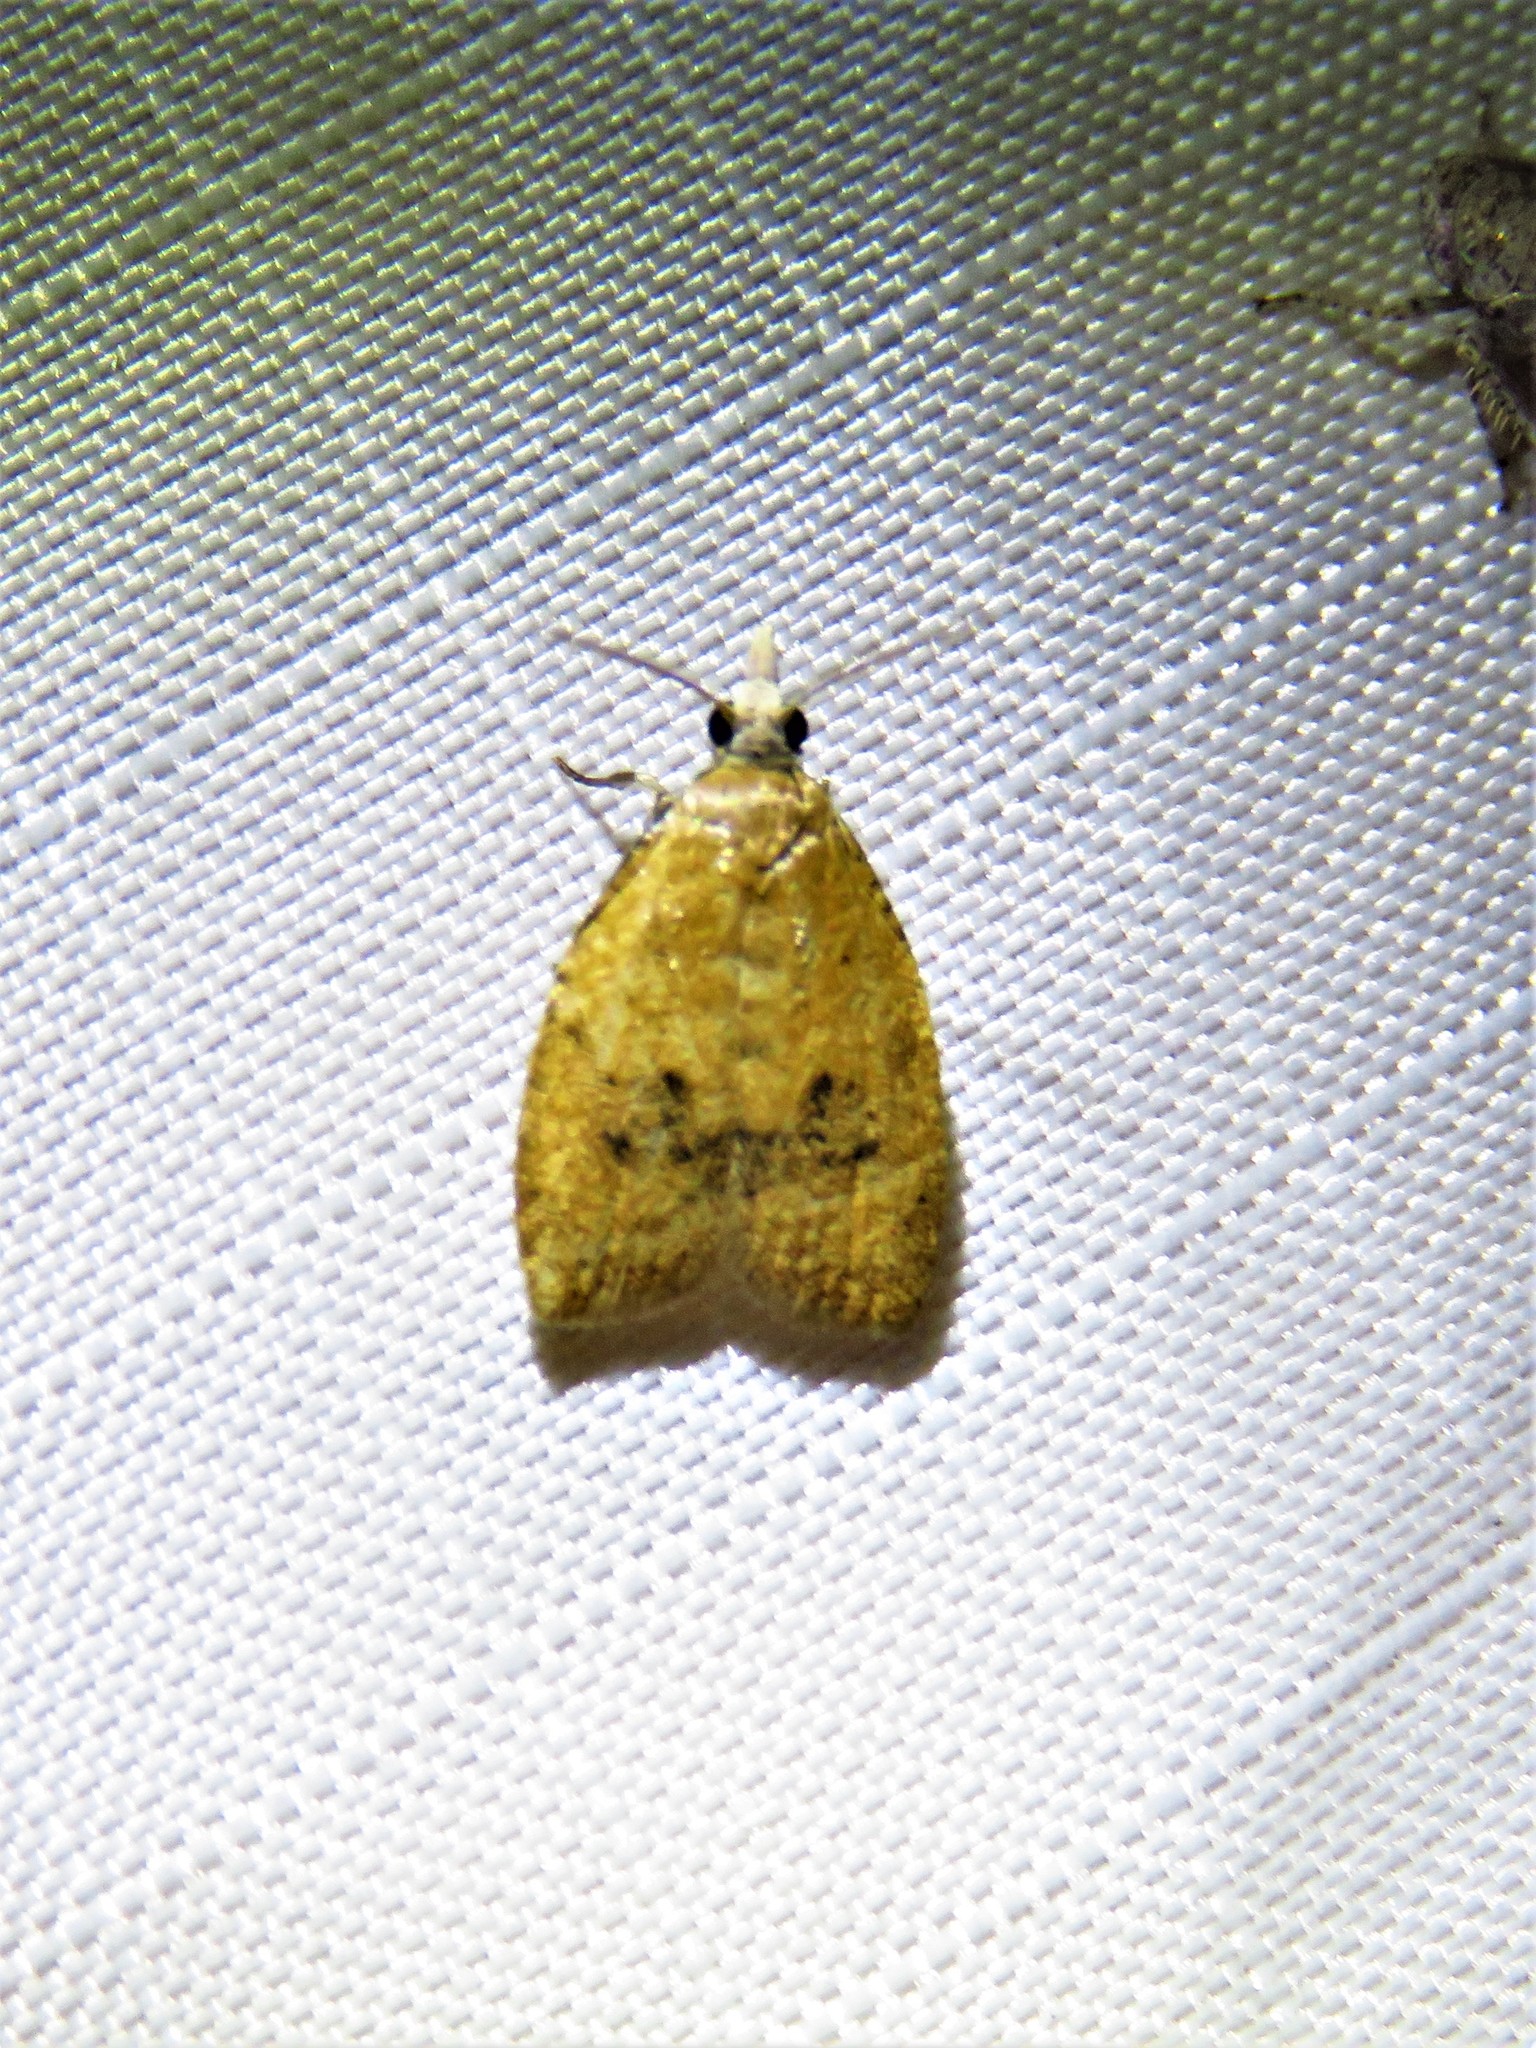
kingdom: Animalia
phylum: Arthropoda
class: Insecta
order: Lepidoptera
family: Tortricidae
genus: Sparganothoides
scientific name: Sparganothoides lentiginosana
